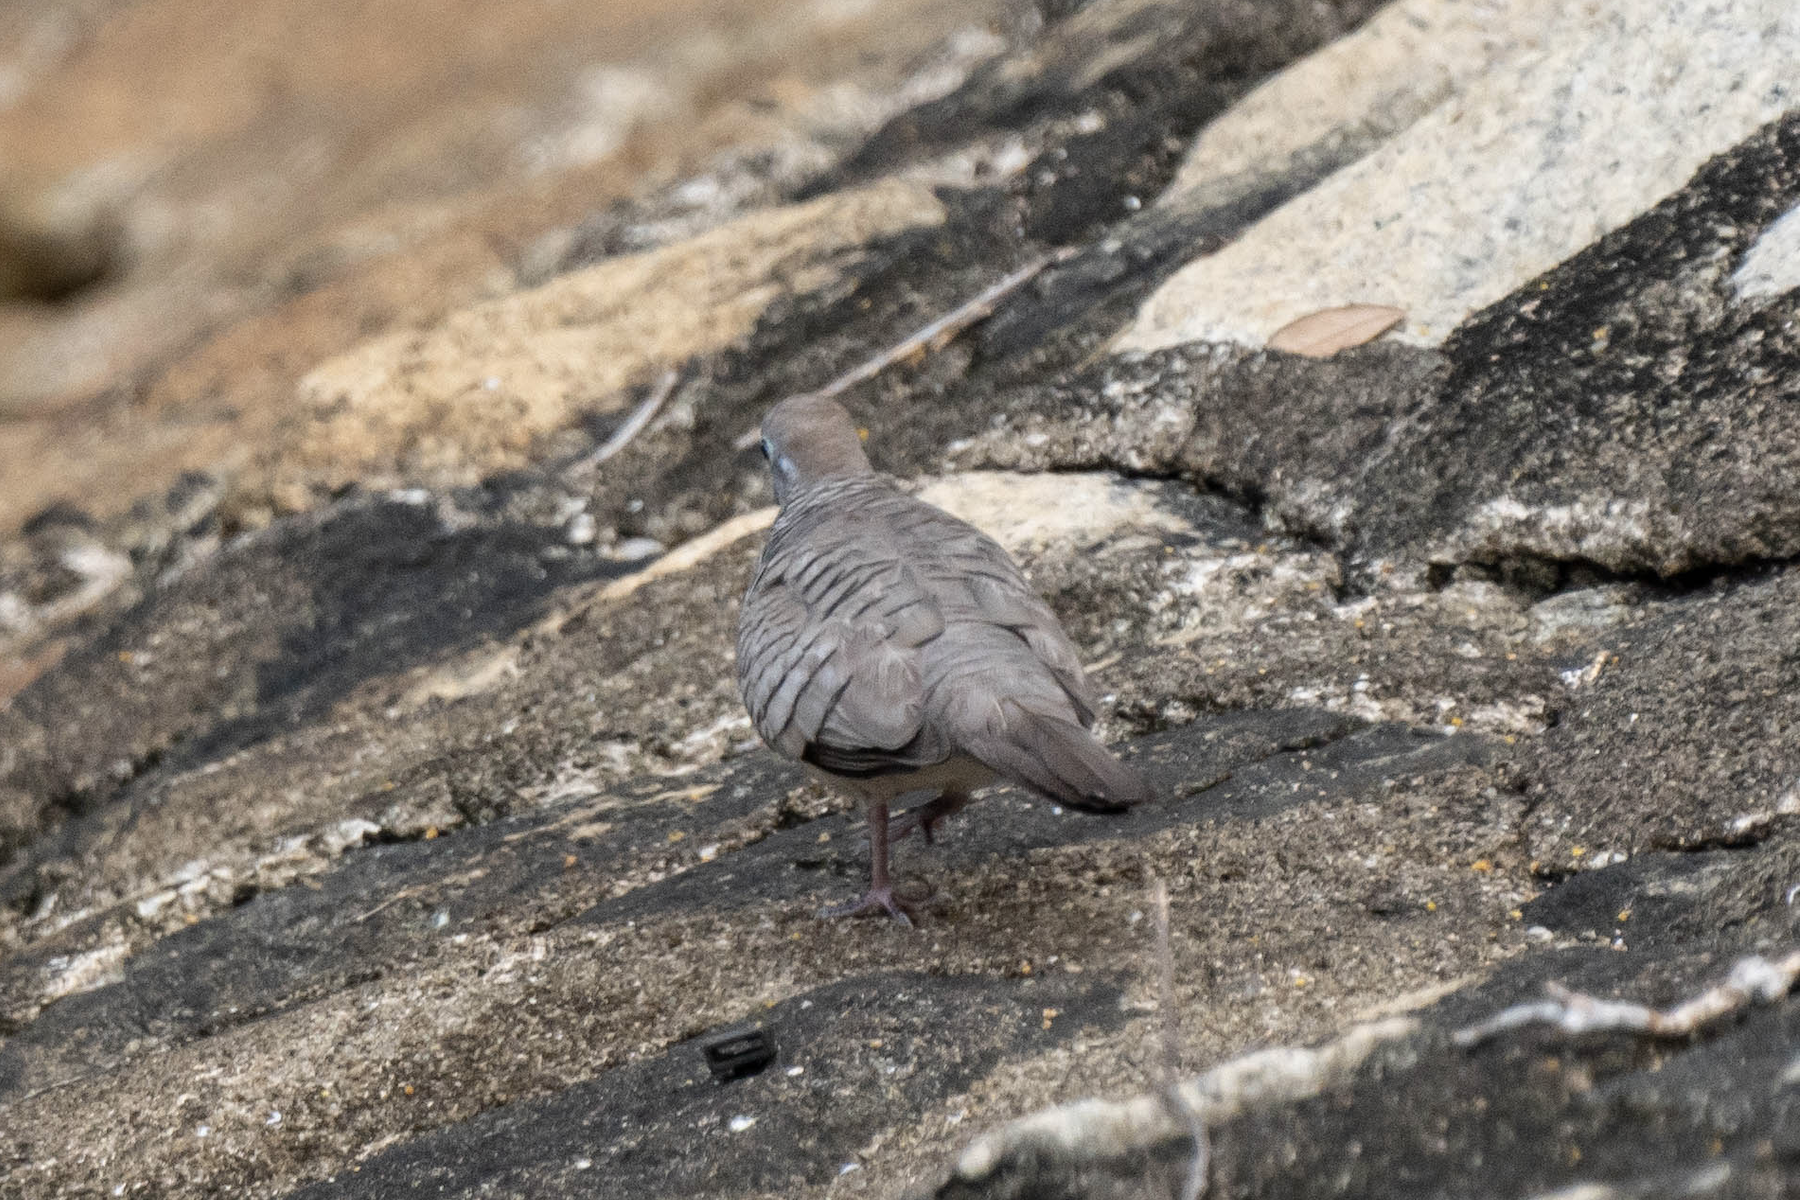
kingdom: Animalia
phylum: Chordata
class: Aves
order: Columbiformes
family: Columbidae
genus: Geopelia
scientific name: Geopelia striata
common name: Zebra dove
